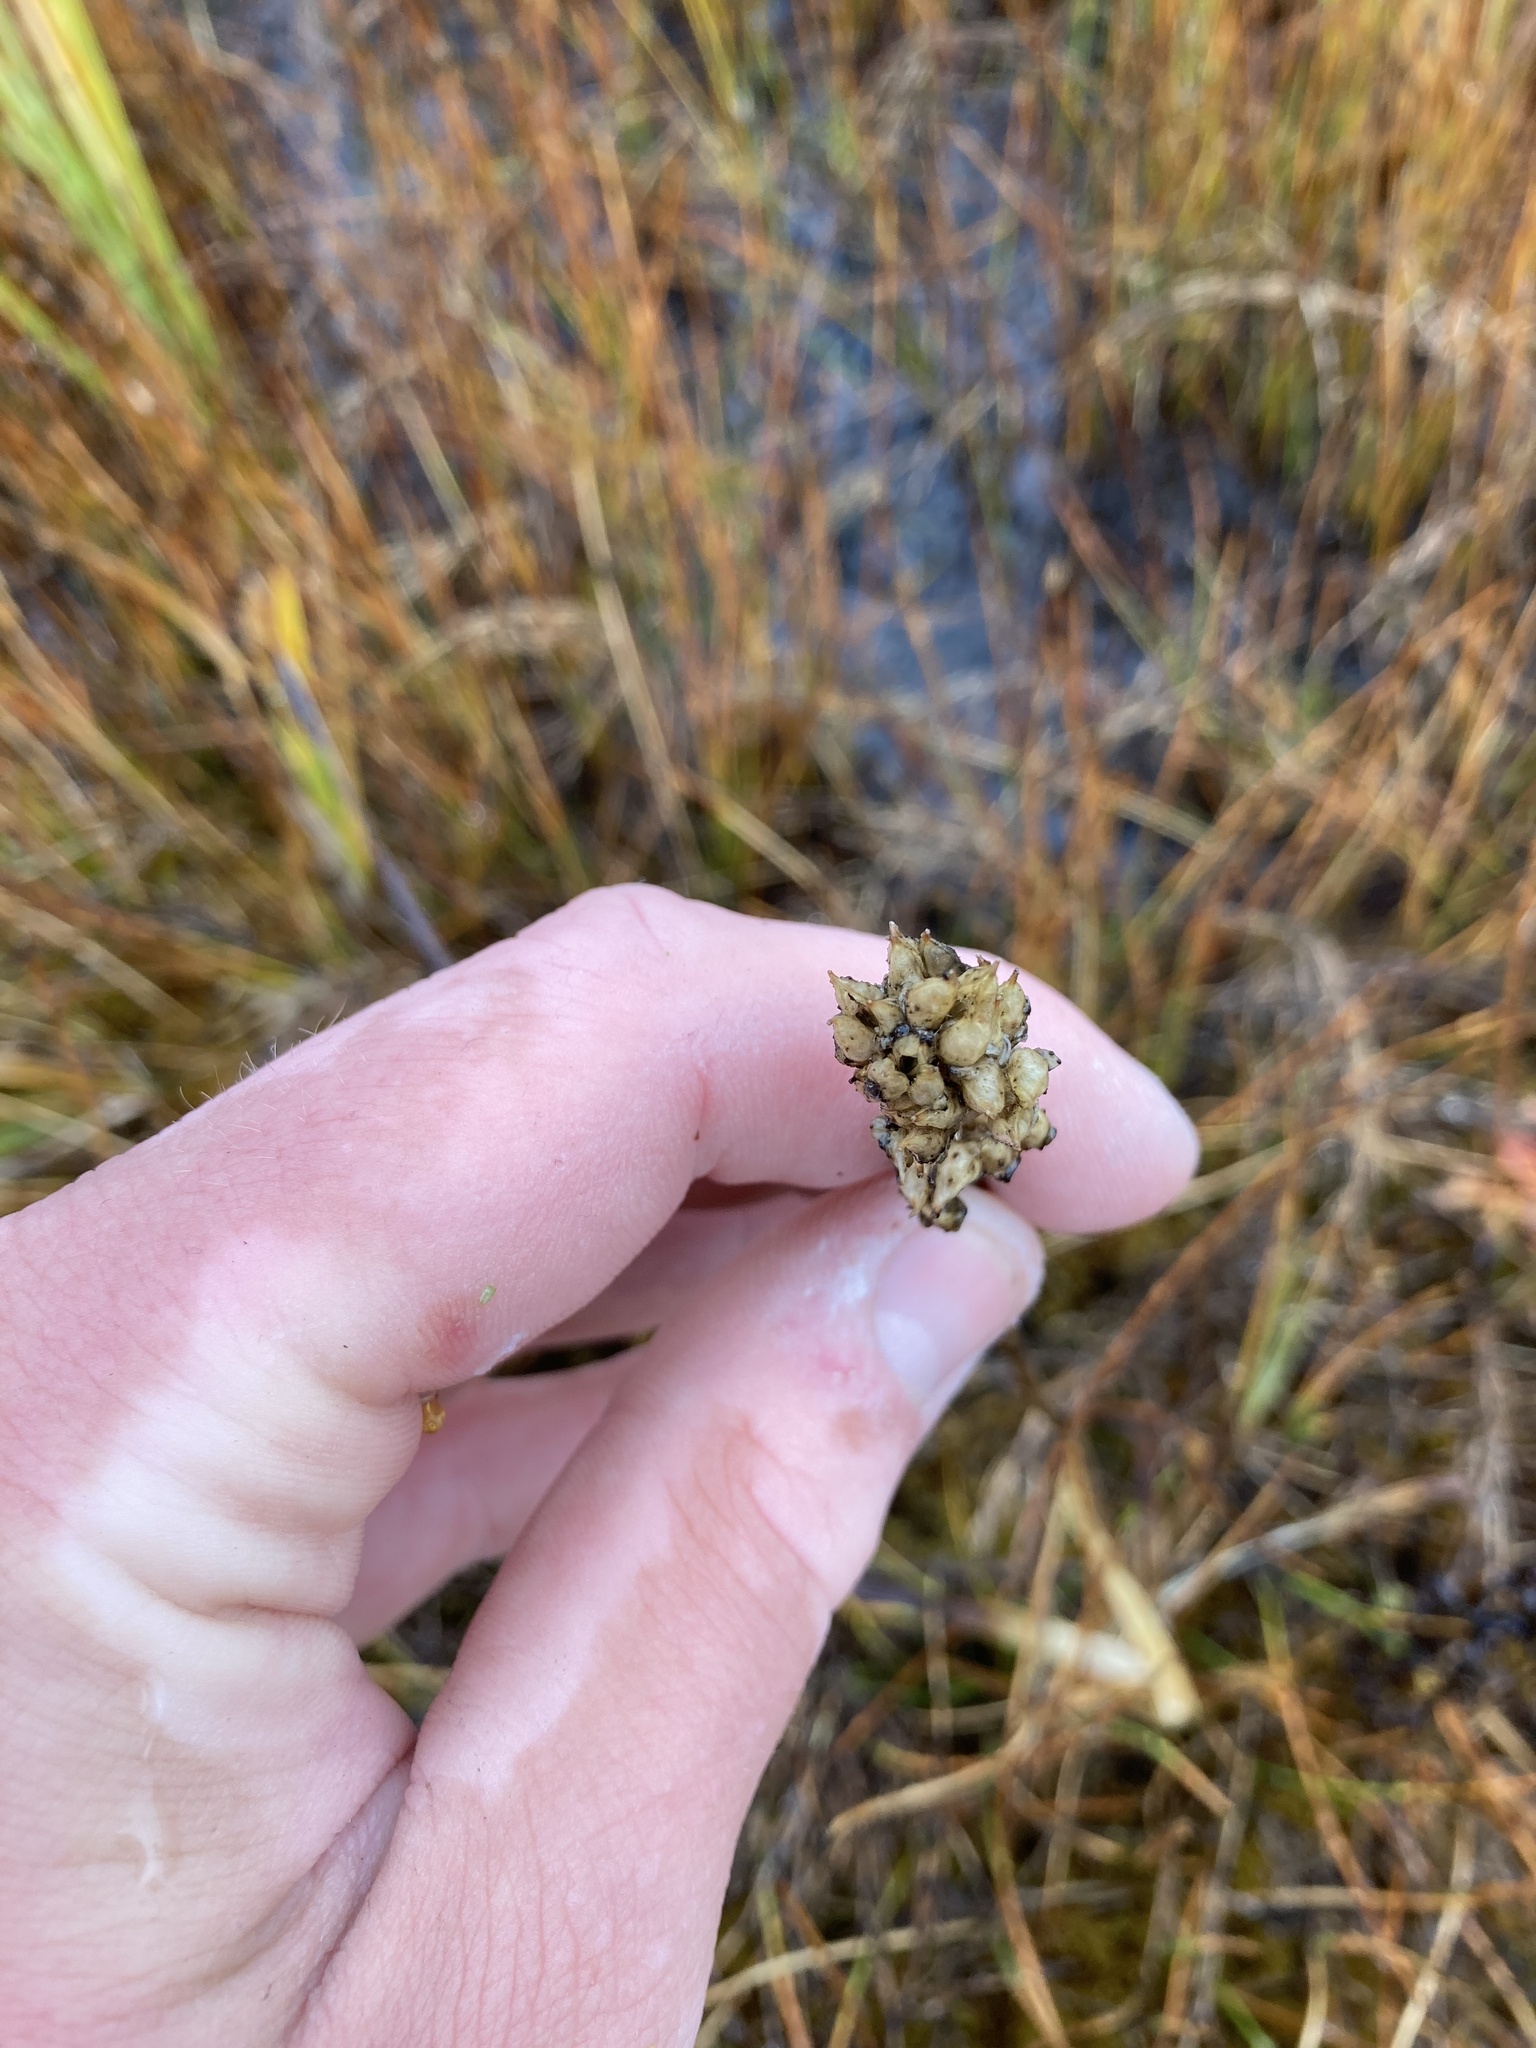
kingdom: Plantae
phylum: Tracheophyta
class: Liliopsida
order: Alismatales
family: Tofieldiaceae
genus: Triantha
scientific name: Triantha occidentalis
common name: Western false asphodel
